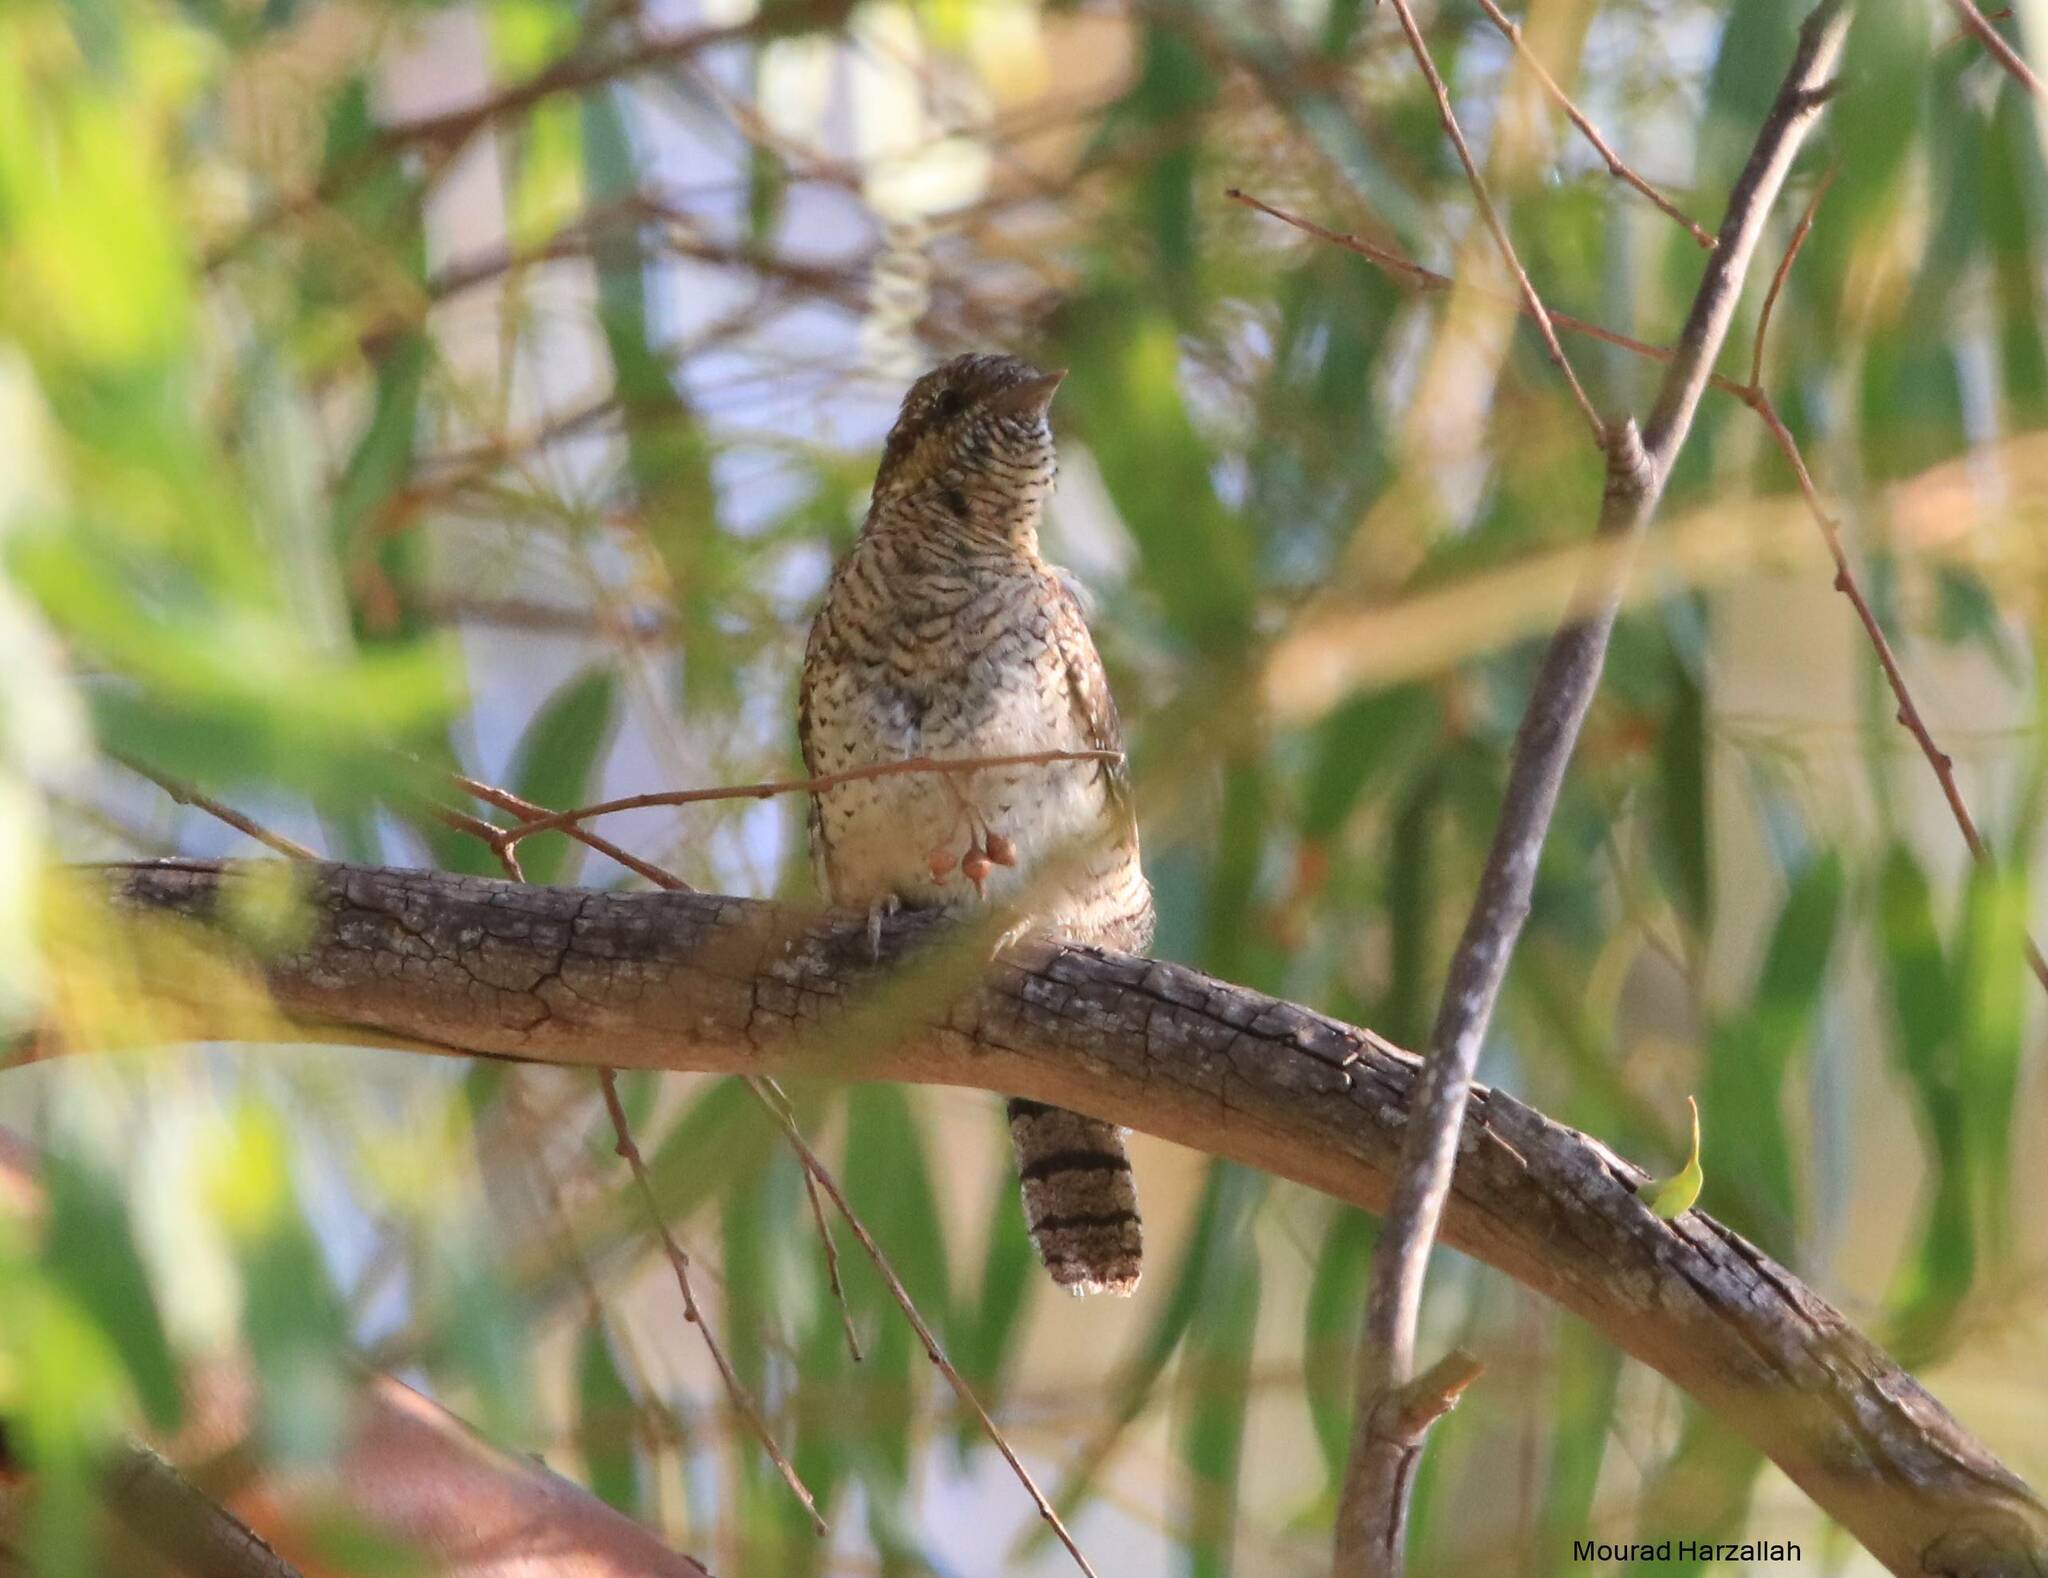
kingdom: Animalia
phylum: Chordata
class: Aves
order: Piciformes
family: Picidae
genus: Jynx
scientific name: Jynx torquilla
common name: Eurasian wryneck
